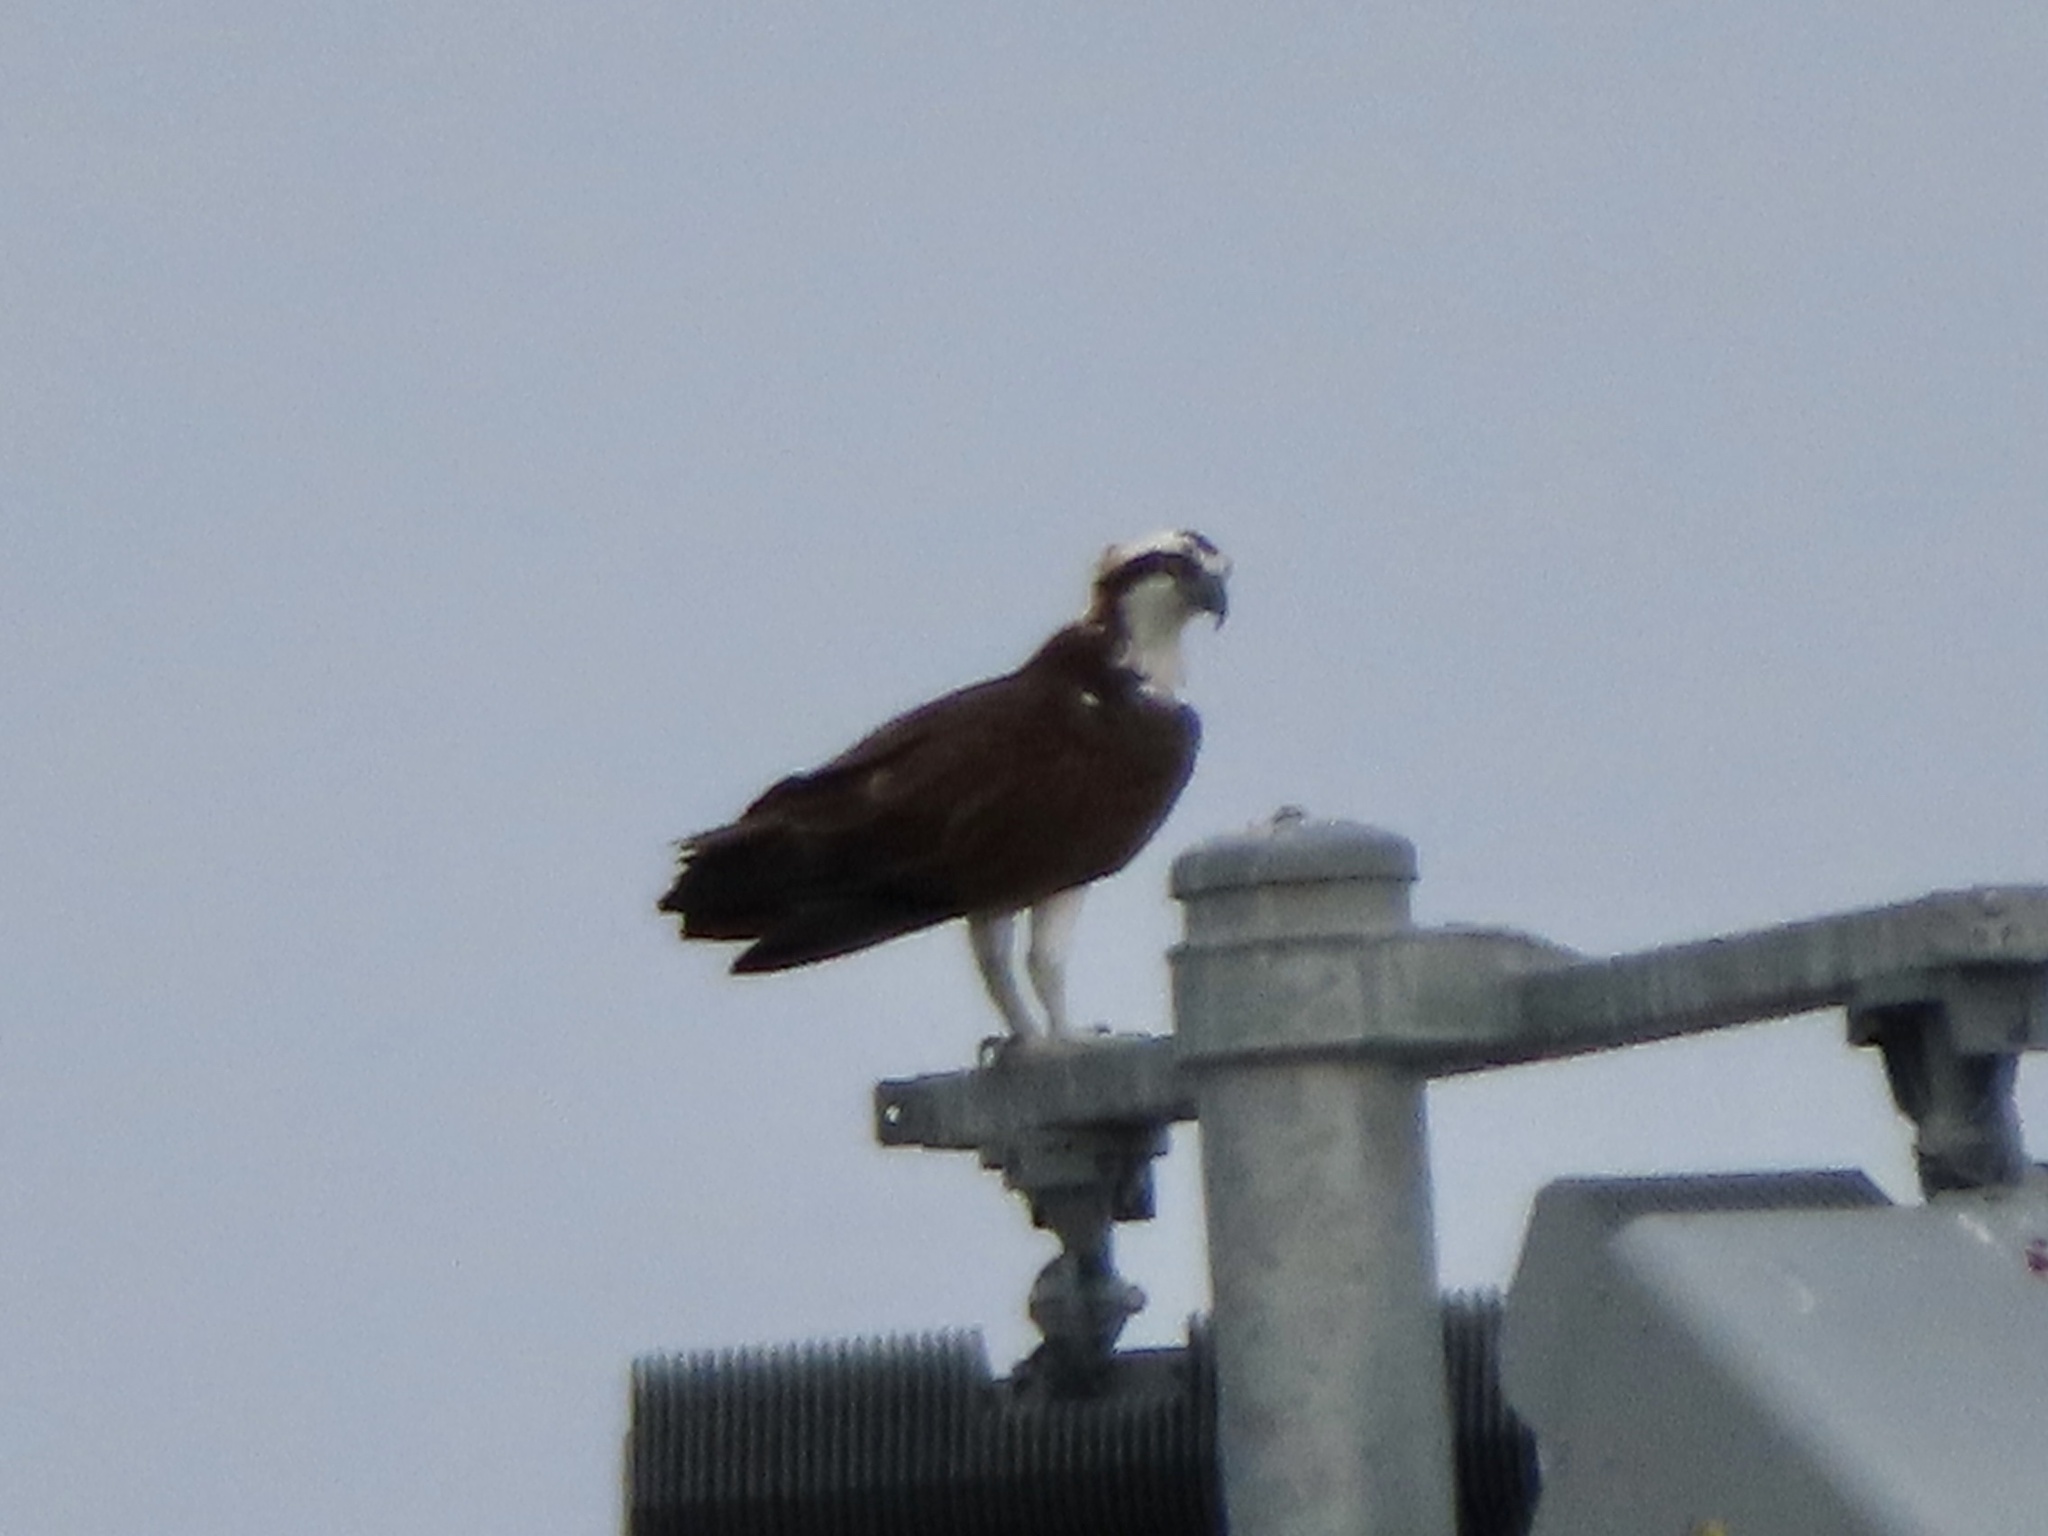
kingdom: Animalia
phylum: Chordata
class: Aves
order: Accipitriformes
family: Pandionidae
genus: Pandion
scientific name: Pandion haliaetus
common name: Osprey
